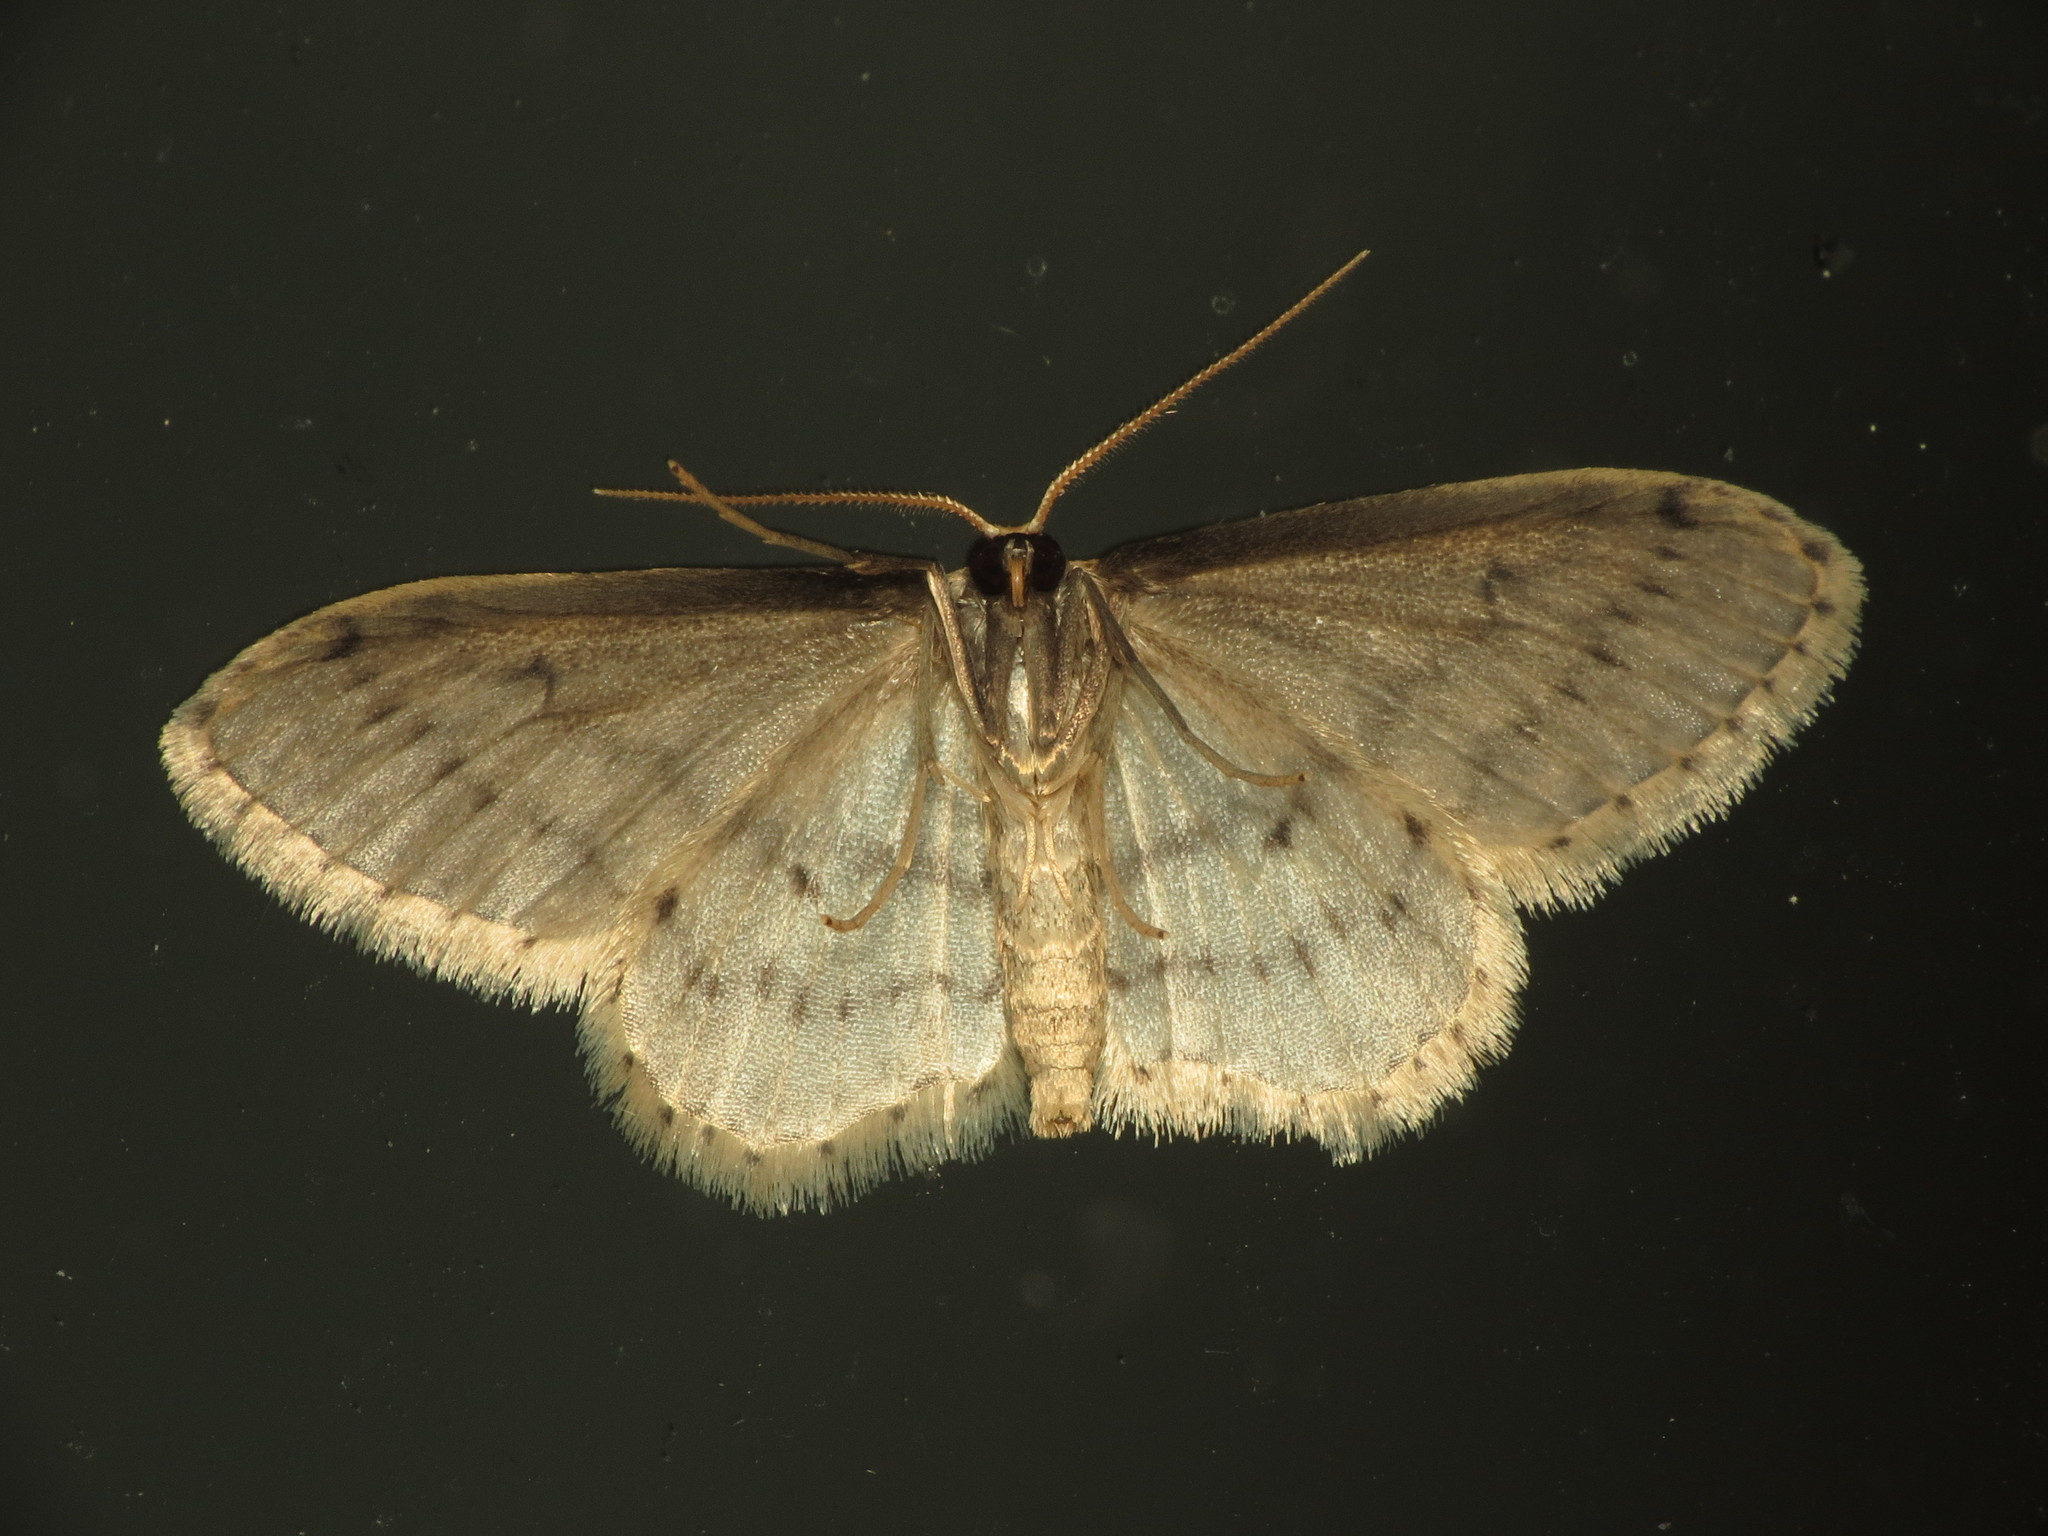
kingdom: Animalia
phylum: Arthropoda
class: Insecta
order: Lepidoptera
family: Geometridae
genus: Idaea
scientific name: Idaea seriata
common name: Small dusty wave
